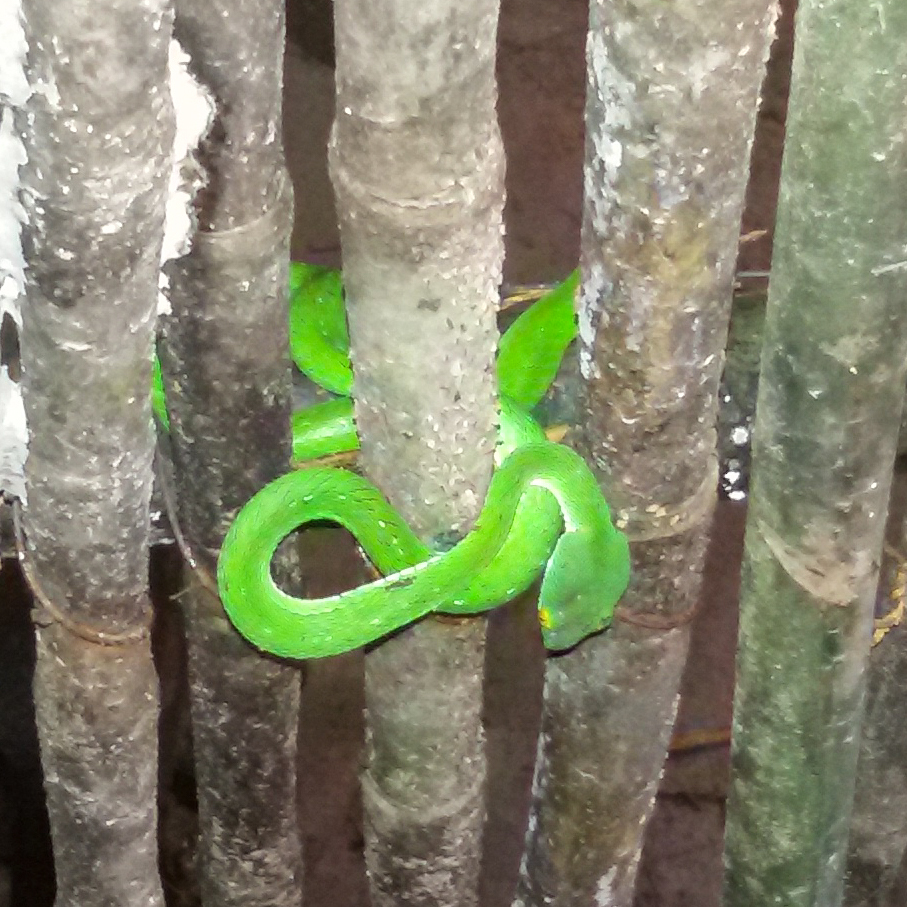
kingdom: Animalia
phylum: Chordata
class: Squamata
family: Viperidae
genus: Trimeresurus
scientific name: Trimeresurus cardamomensis
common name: Cardamom mountains green pitviper
